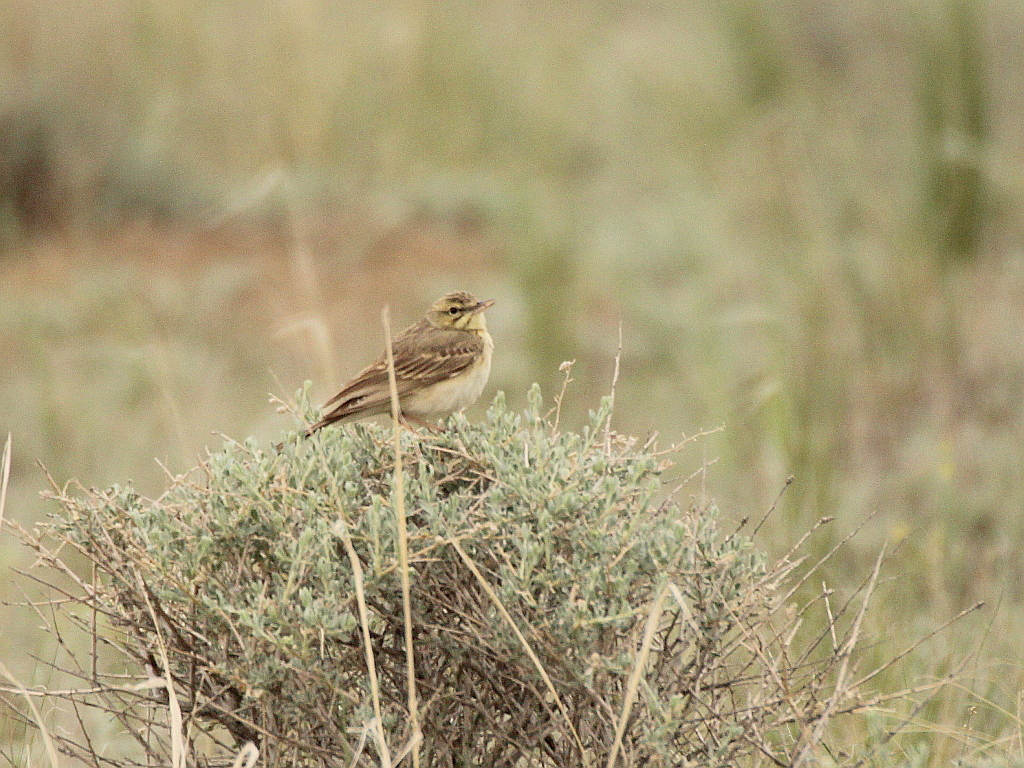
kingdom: Animalia
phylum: Chordata
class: Aves
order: Passeriformes
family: Motacillidae
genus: Anthus
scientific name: Anthus campestris
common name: Tawny pipit
